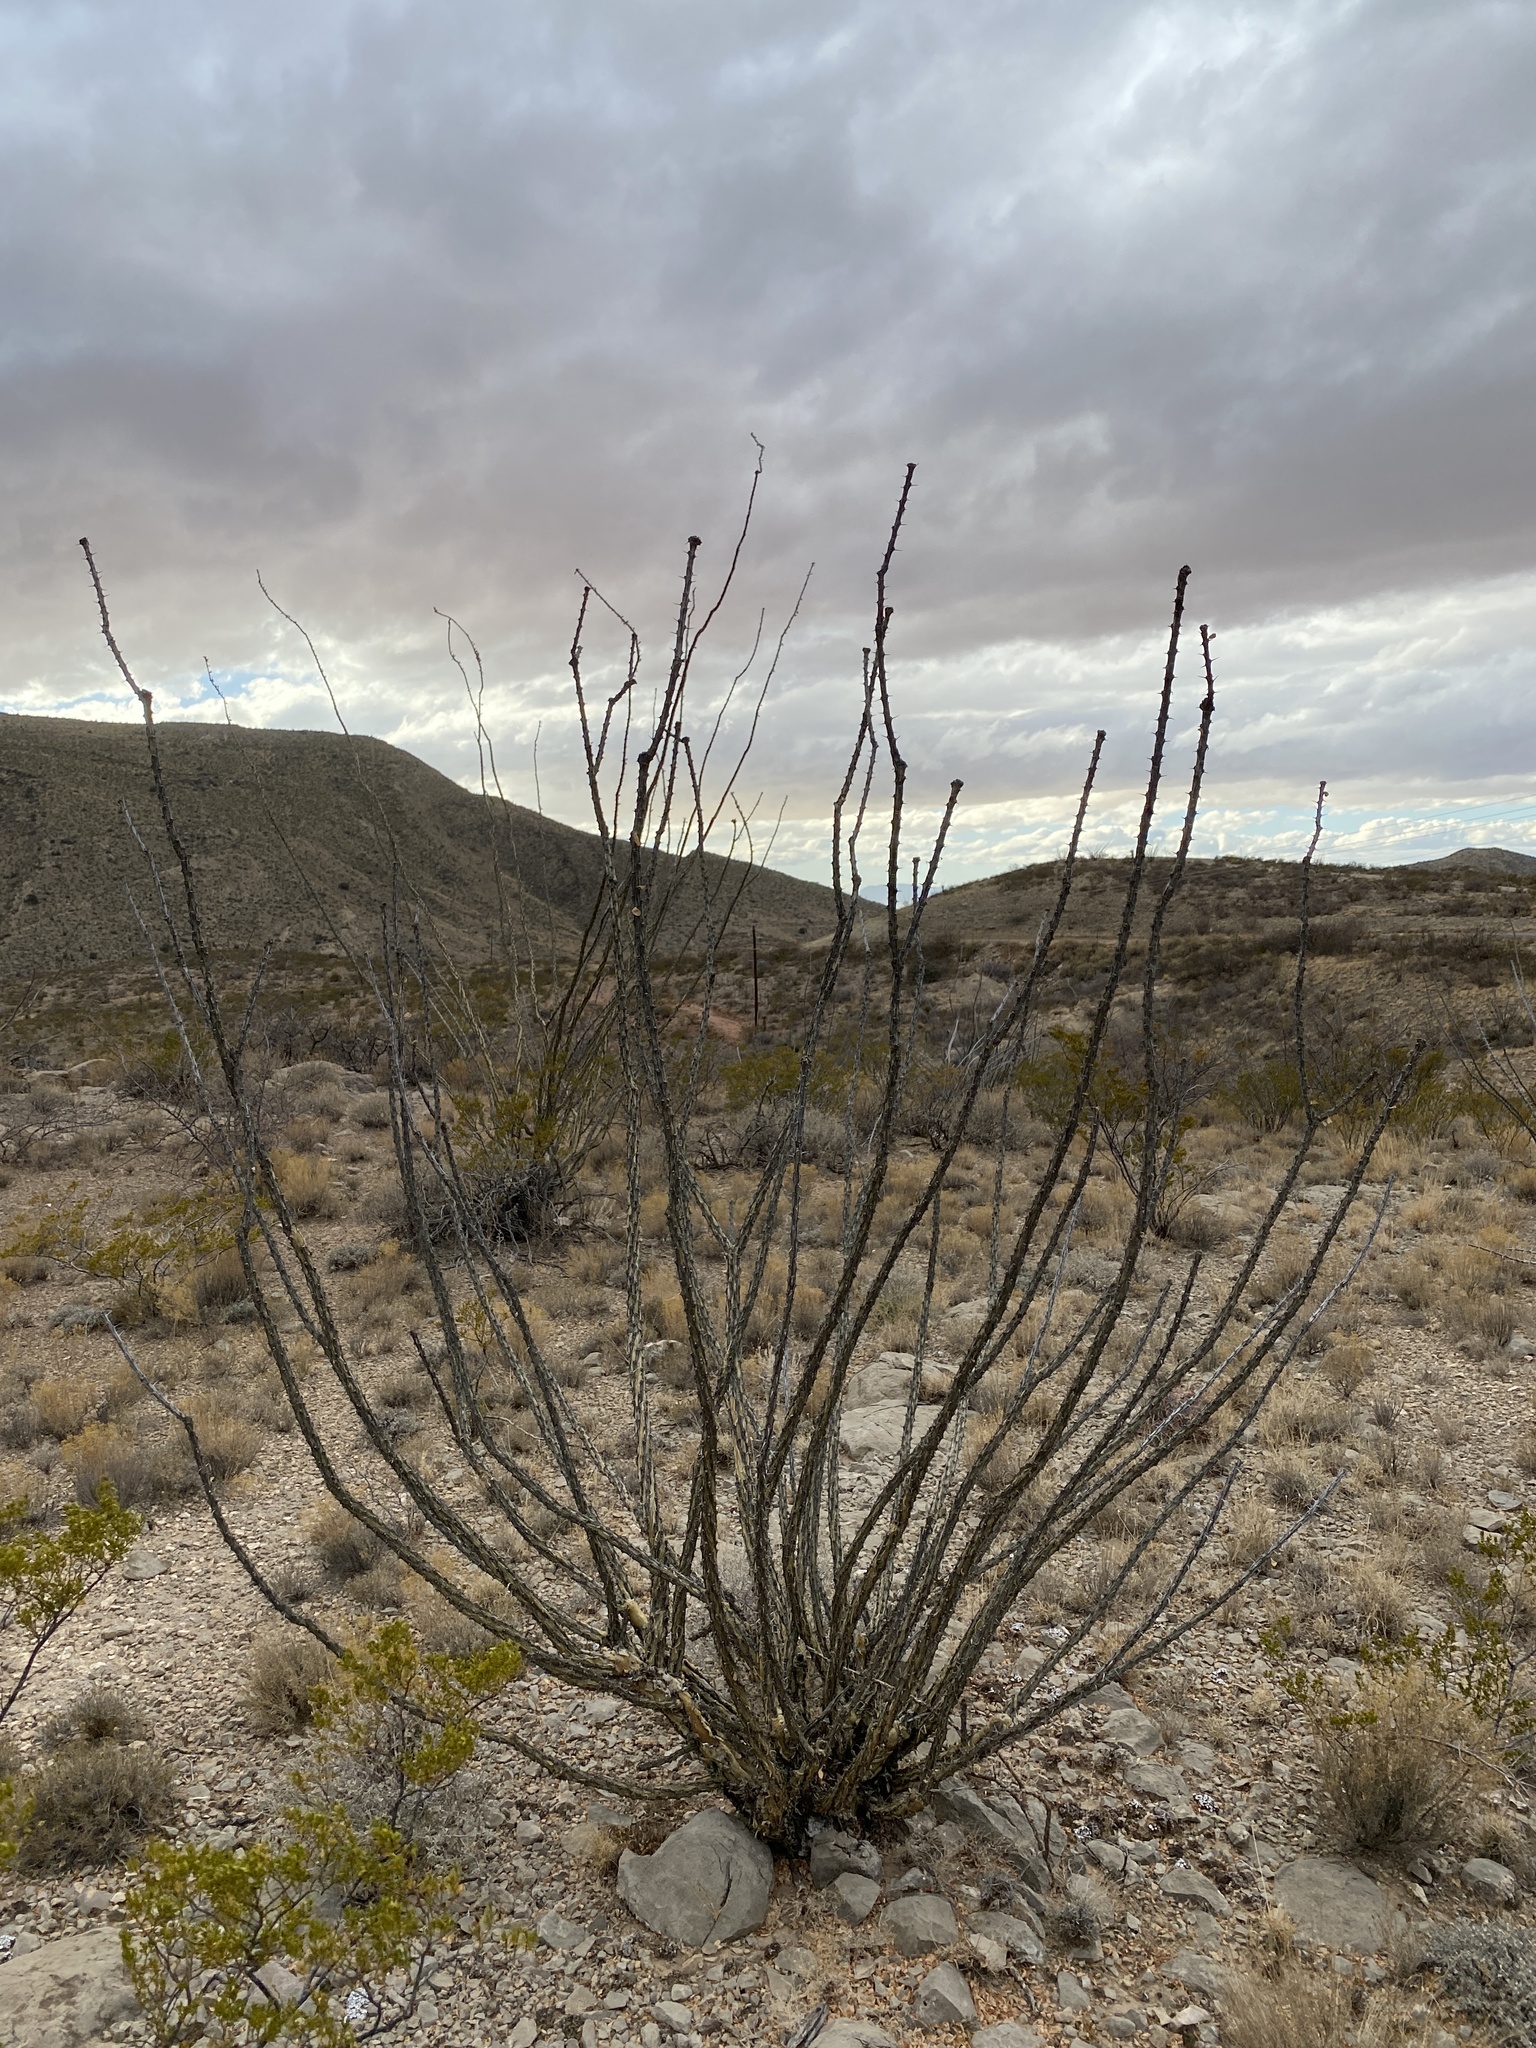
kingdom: Plantae
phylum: Tracheophyta
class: Magnoliopsida
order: Ericales
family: Fouquieriaceae
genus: Fouquieria
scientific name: Fouquieria splendens
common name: Vine-cactus
